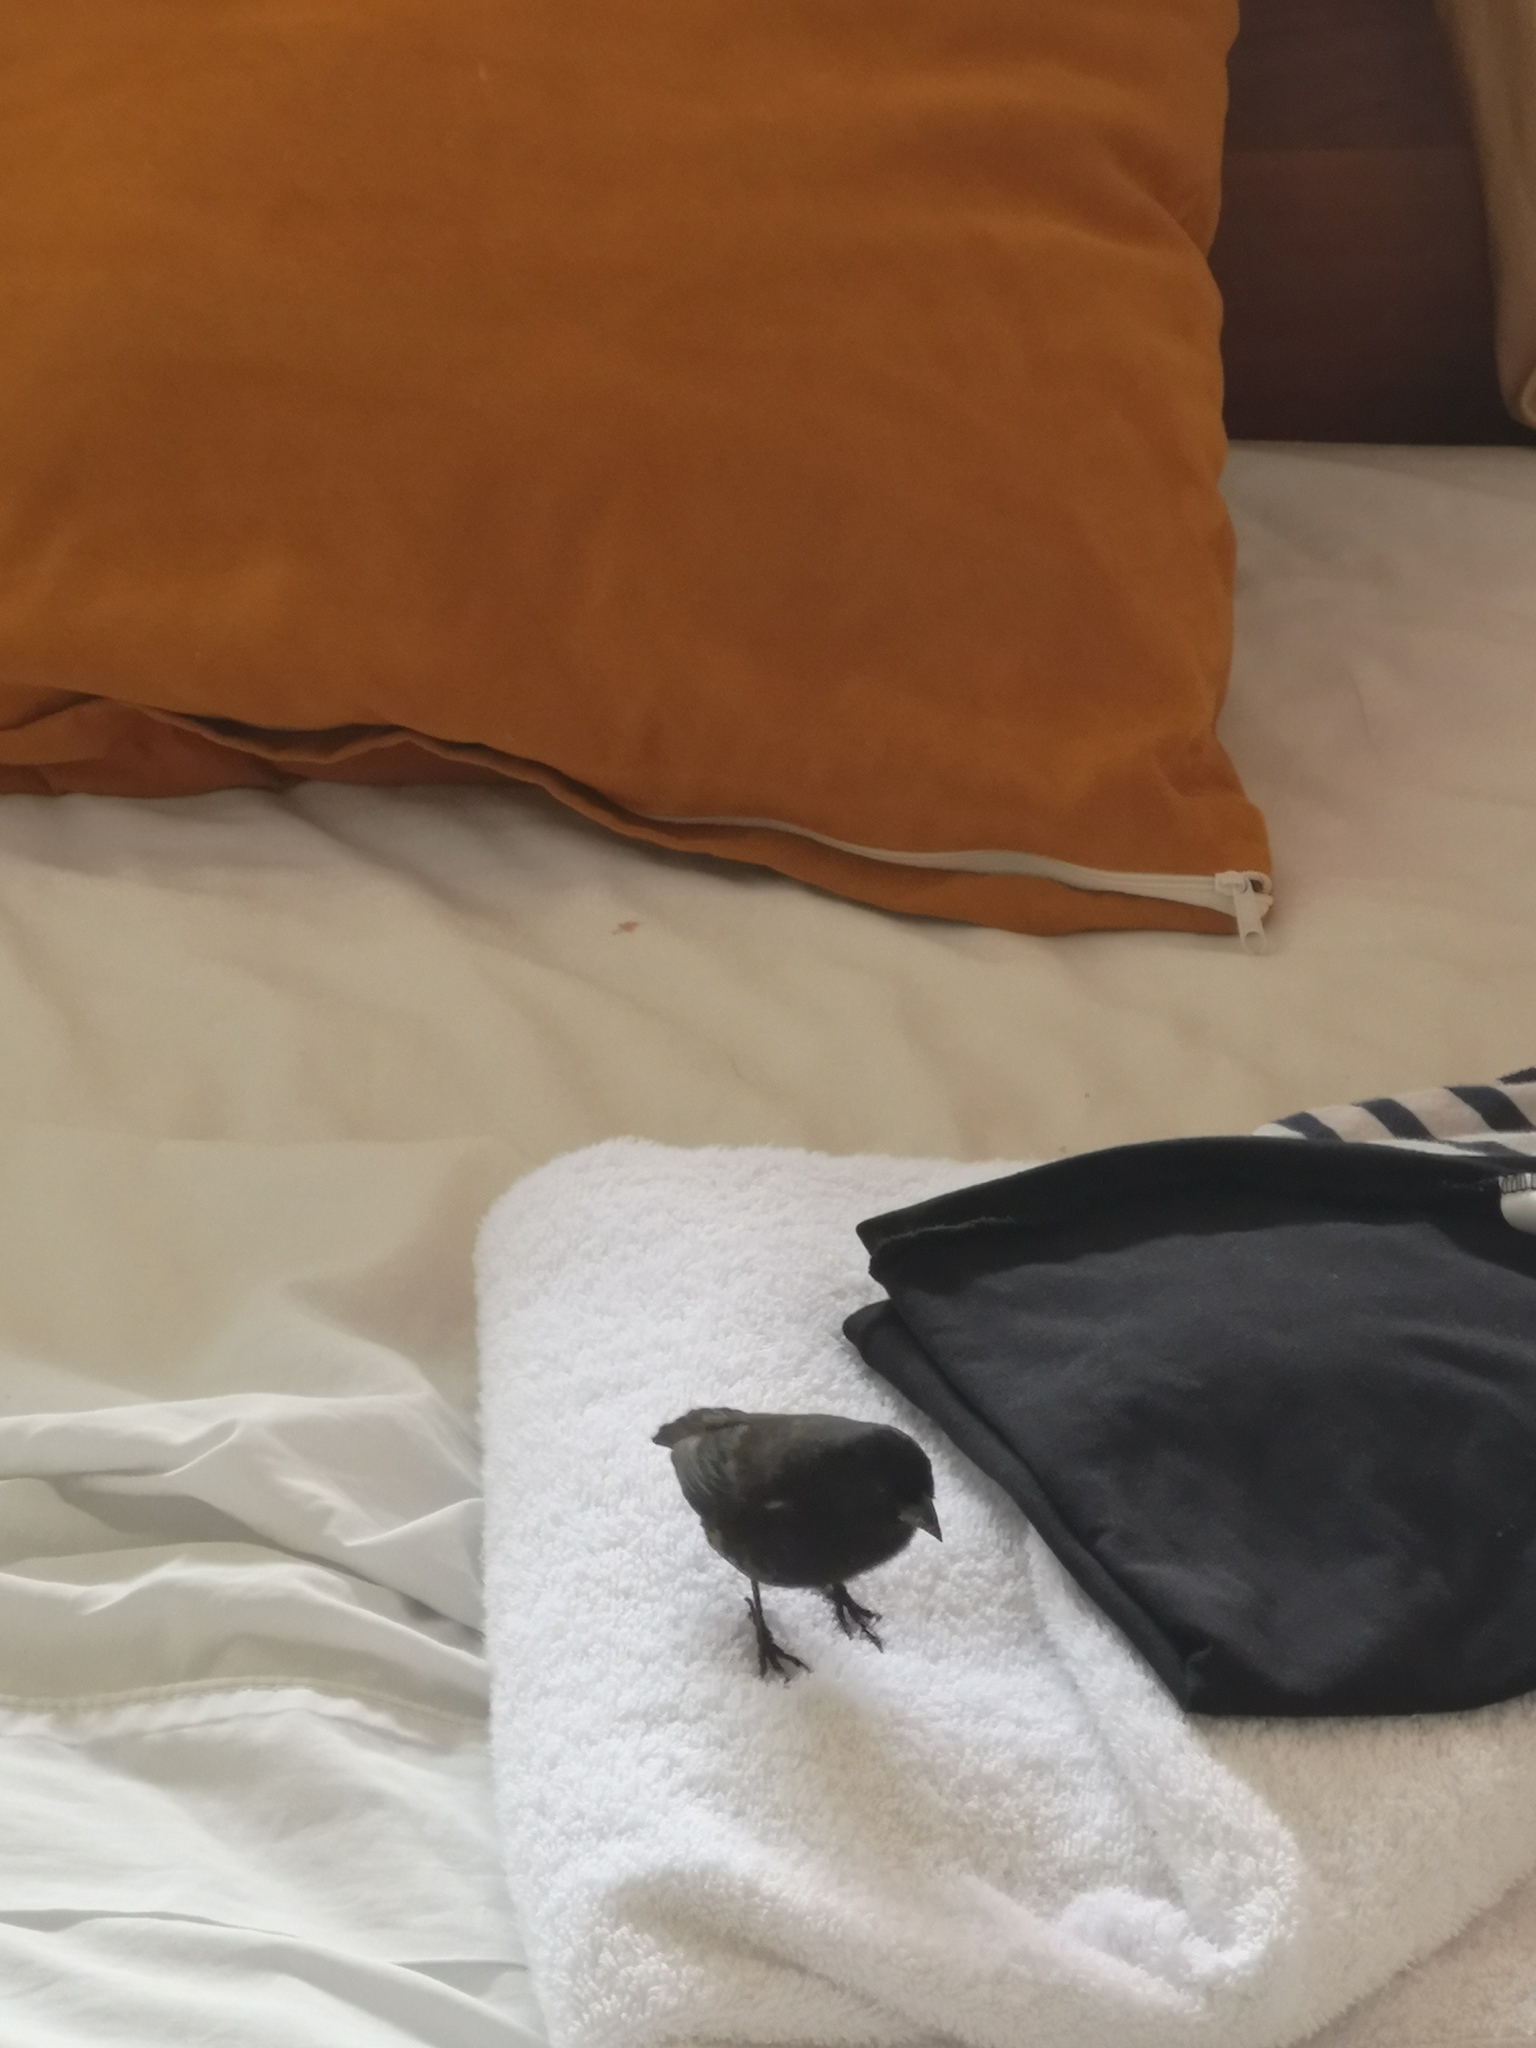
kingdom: Animalia
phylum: Chordata
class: Aves
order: Passeriformes
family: Thraupidae
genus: Geospiza
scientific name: Geospiza fuliginosa
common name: Small ground finch
